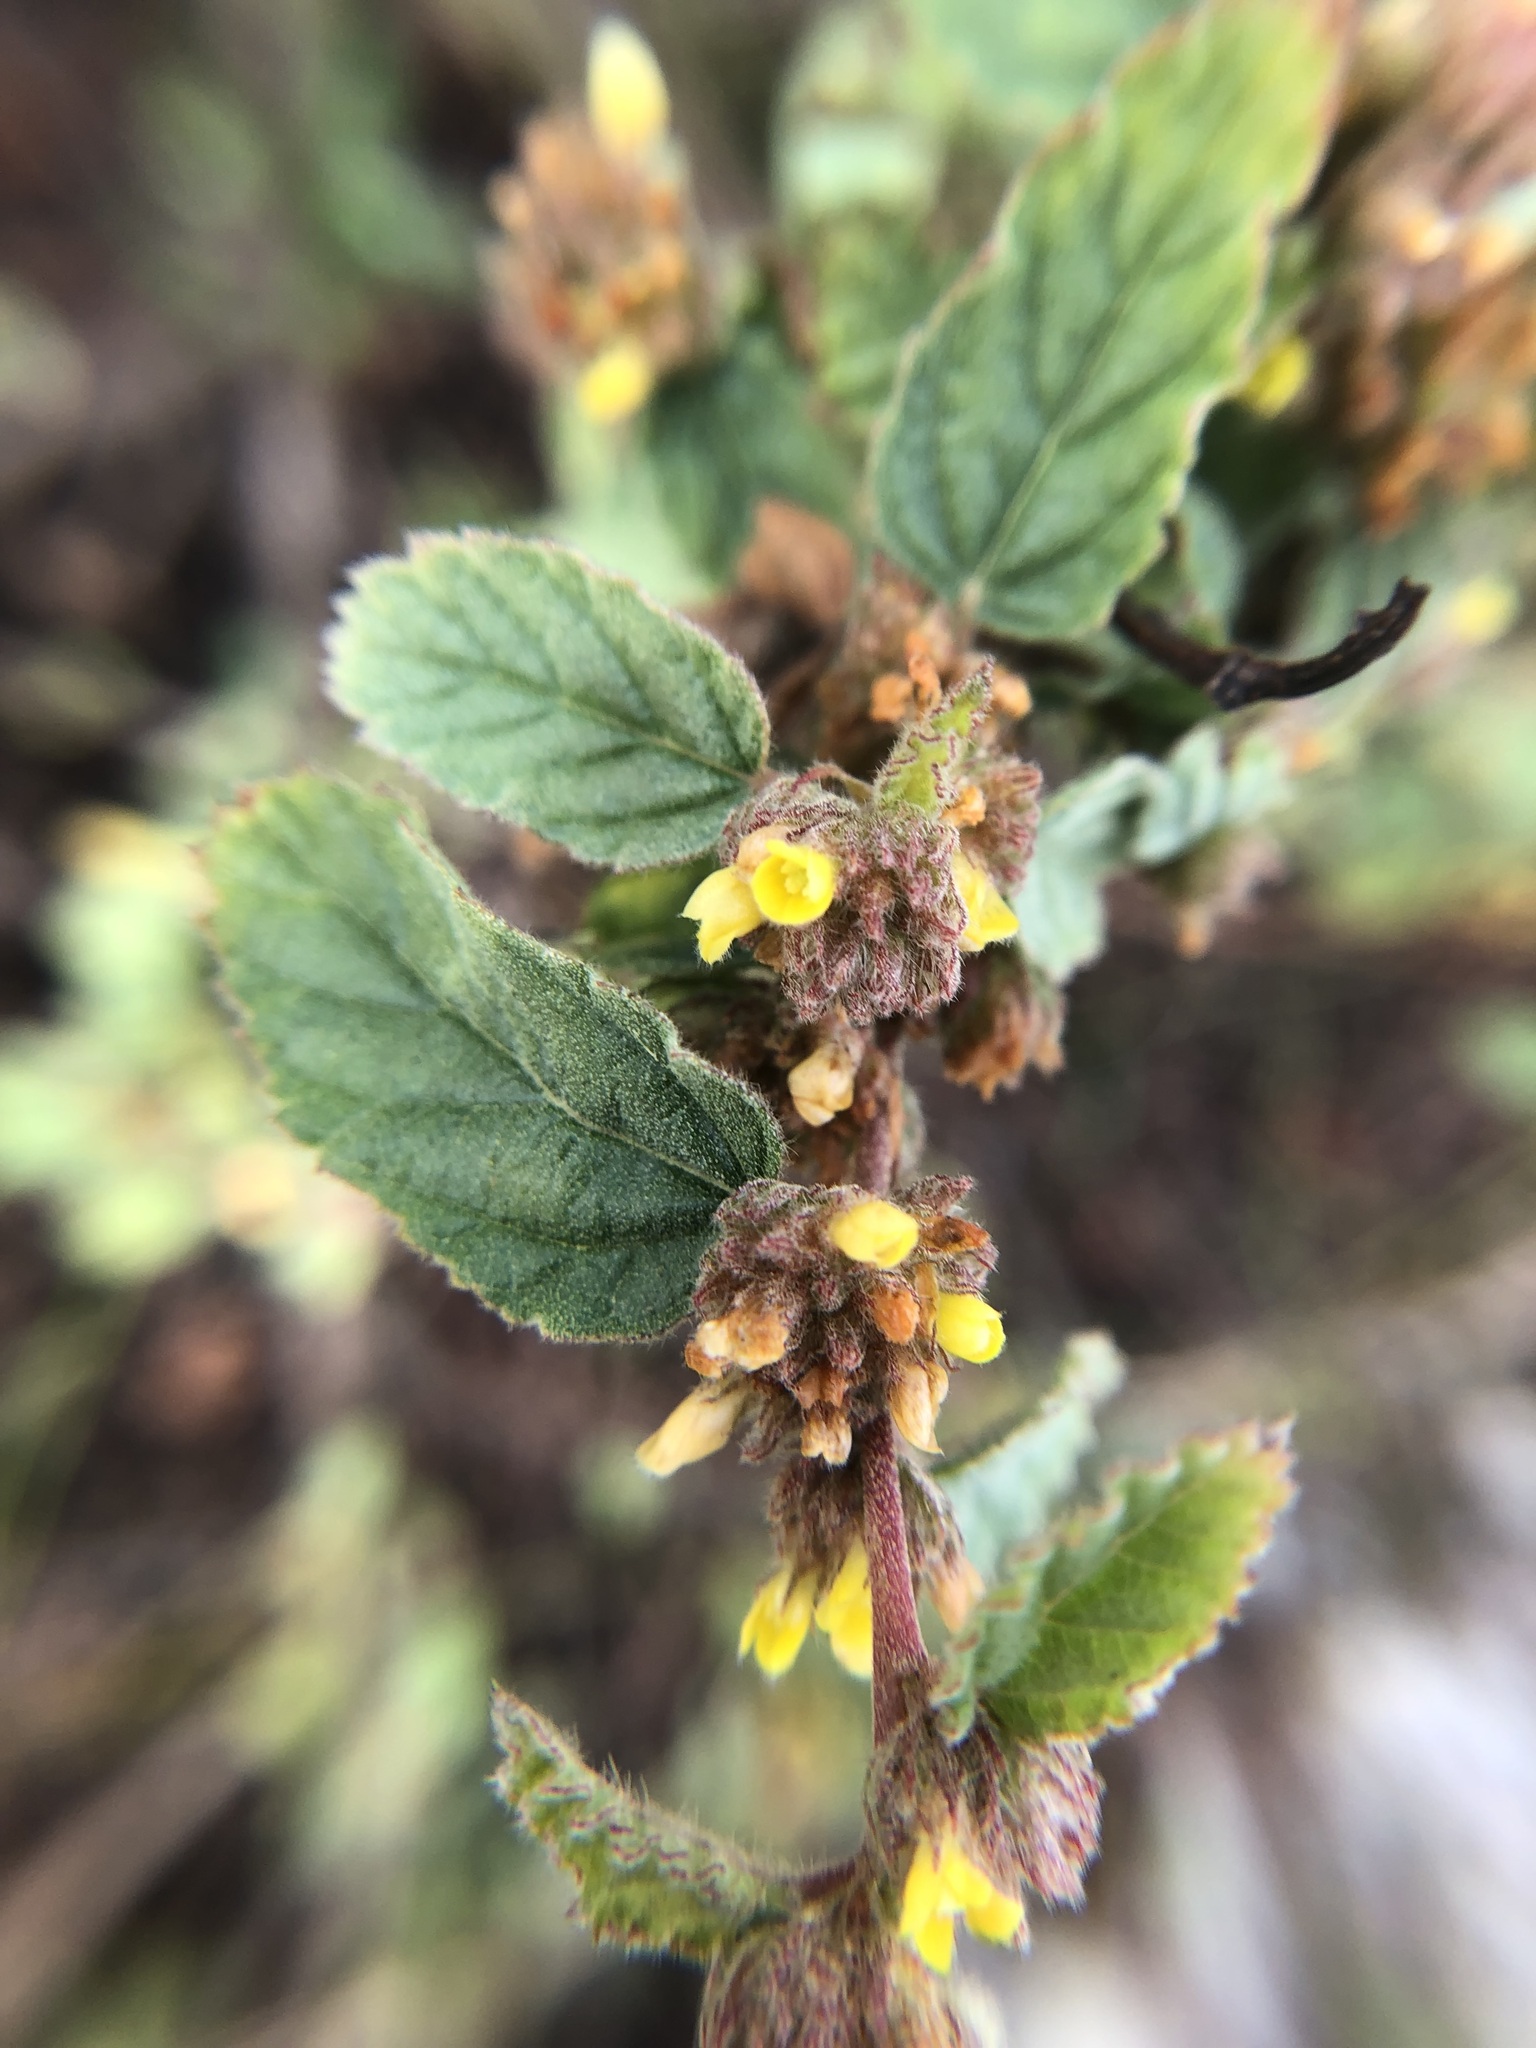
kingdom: Plantae
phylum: Tracheophyta
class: Magnoliopsida
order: Malvales
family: Malvaceae
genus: Waltheria
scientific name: Waltheria indica
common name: Leather-coat
